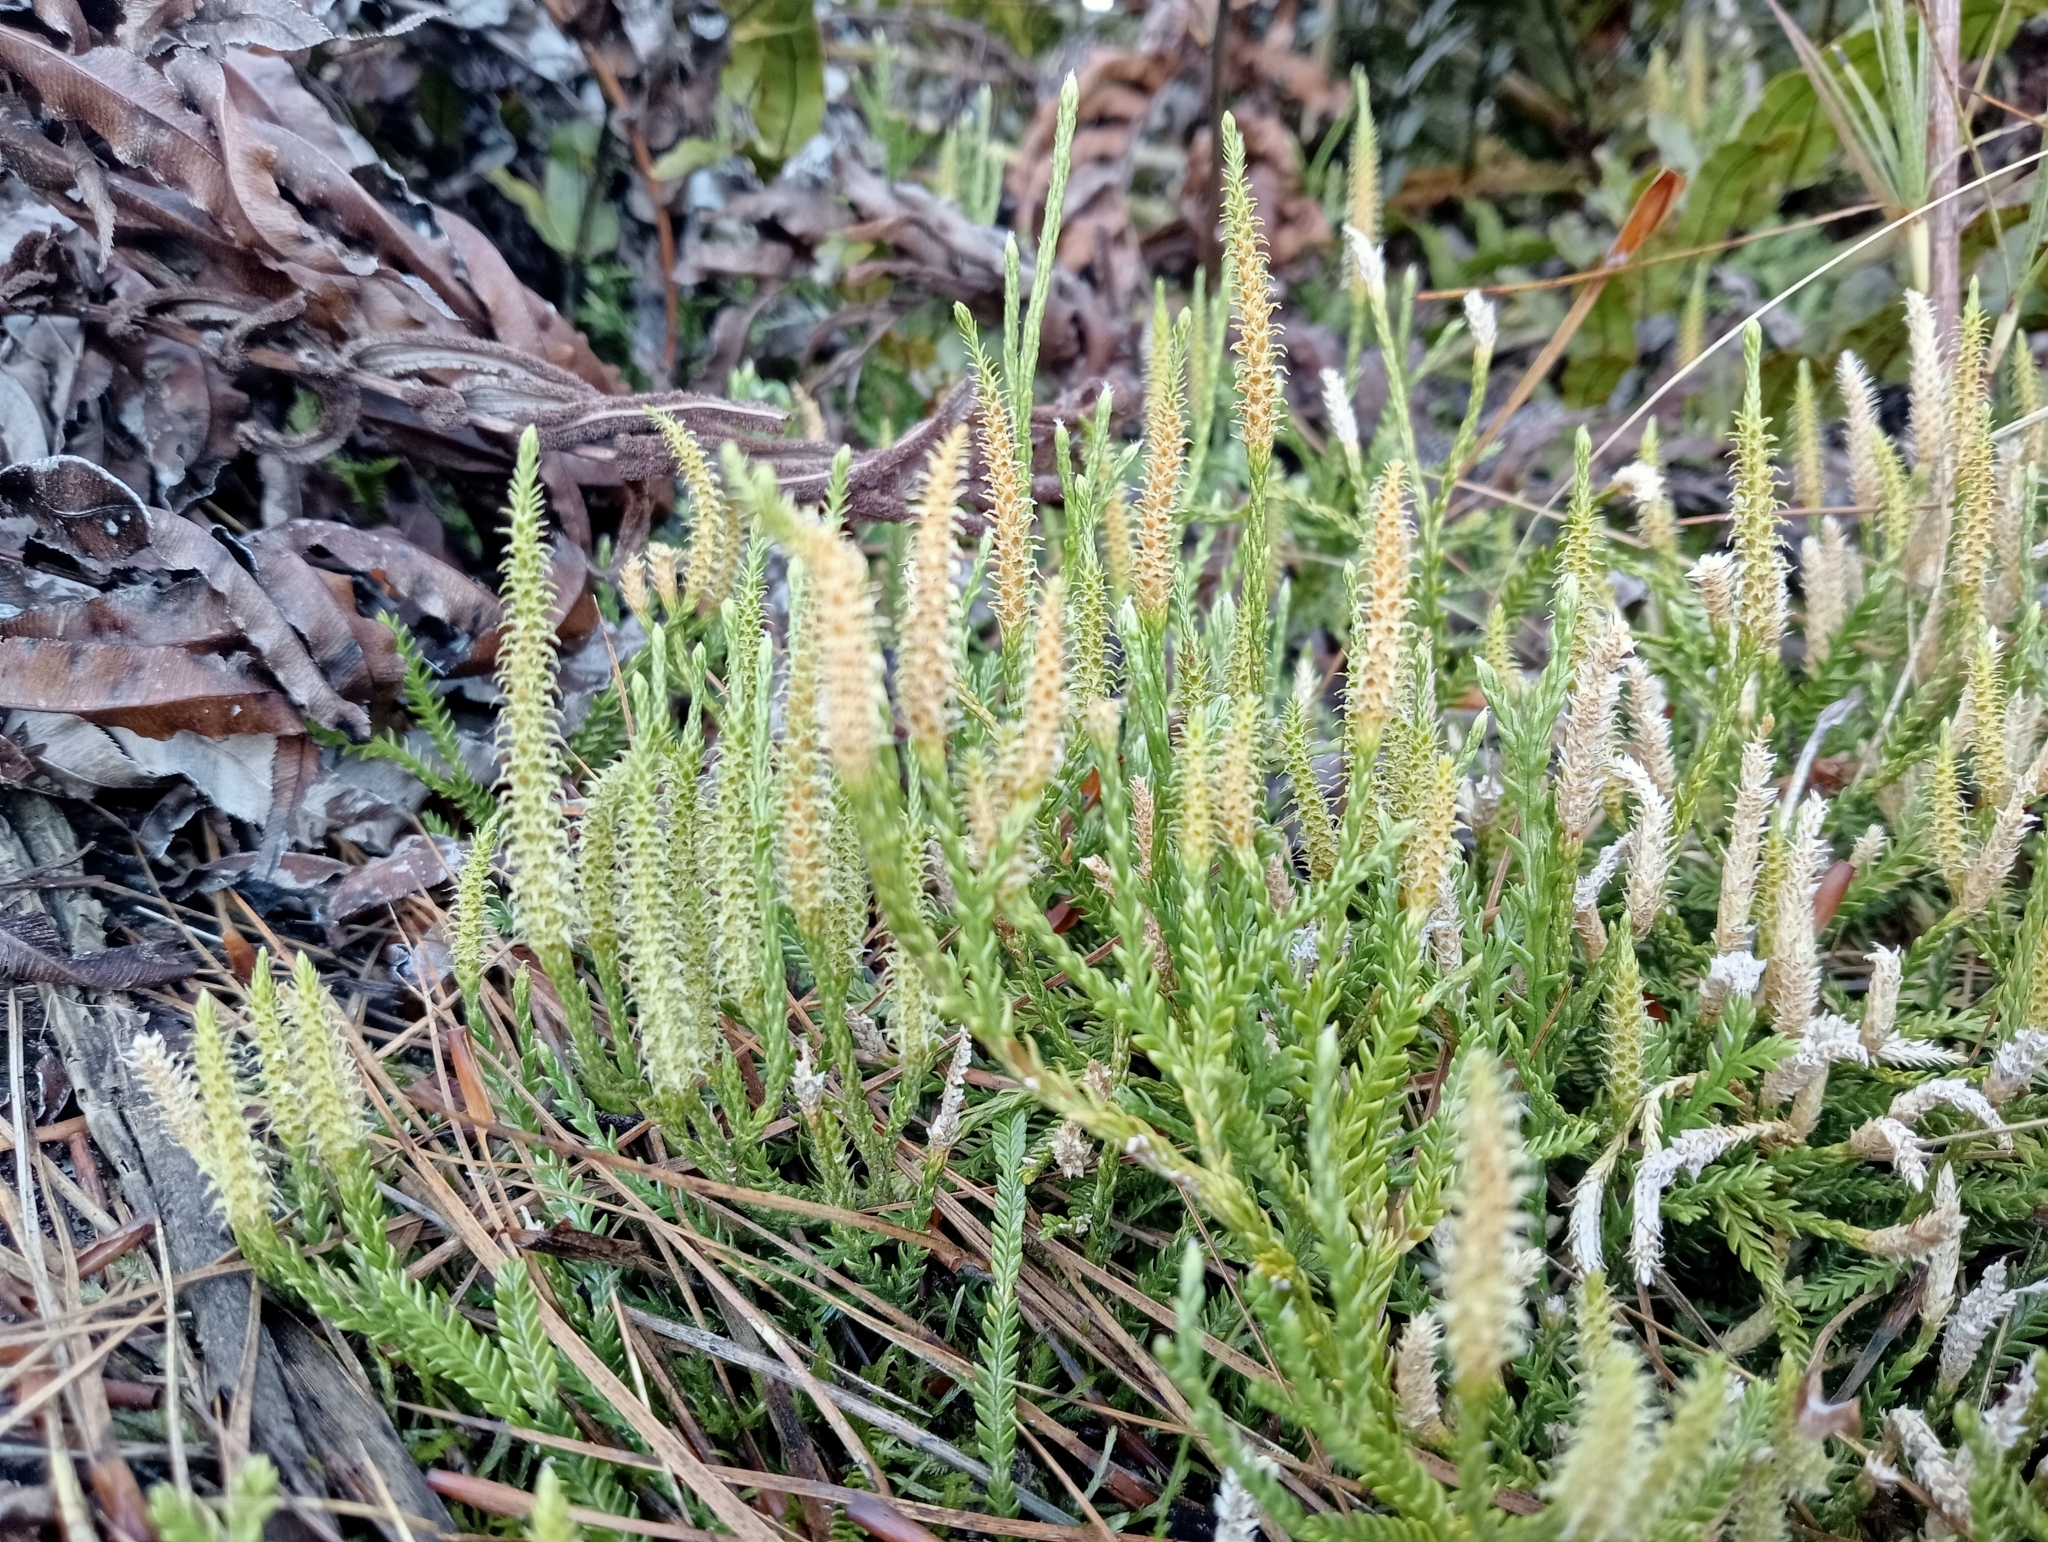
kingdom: Plantae
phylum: Tracheophyta
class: Lycopodiopsida
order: Lycopodiales
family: Lycopodiaceae
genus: Diphasium
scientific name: Diphasium scariosum
